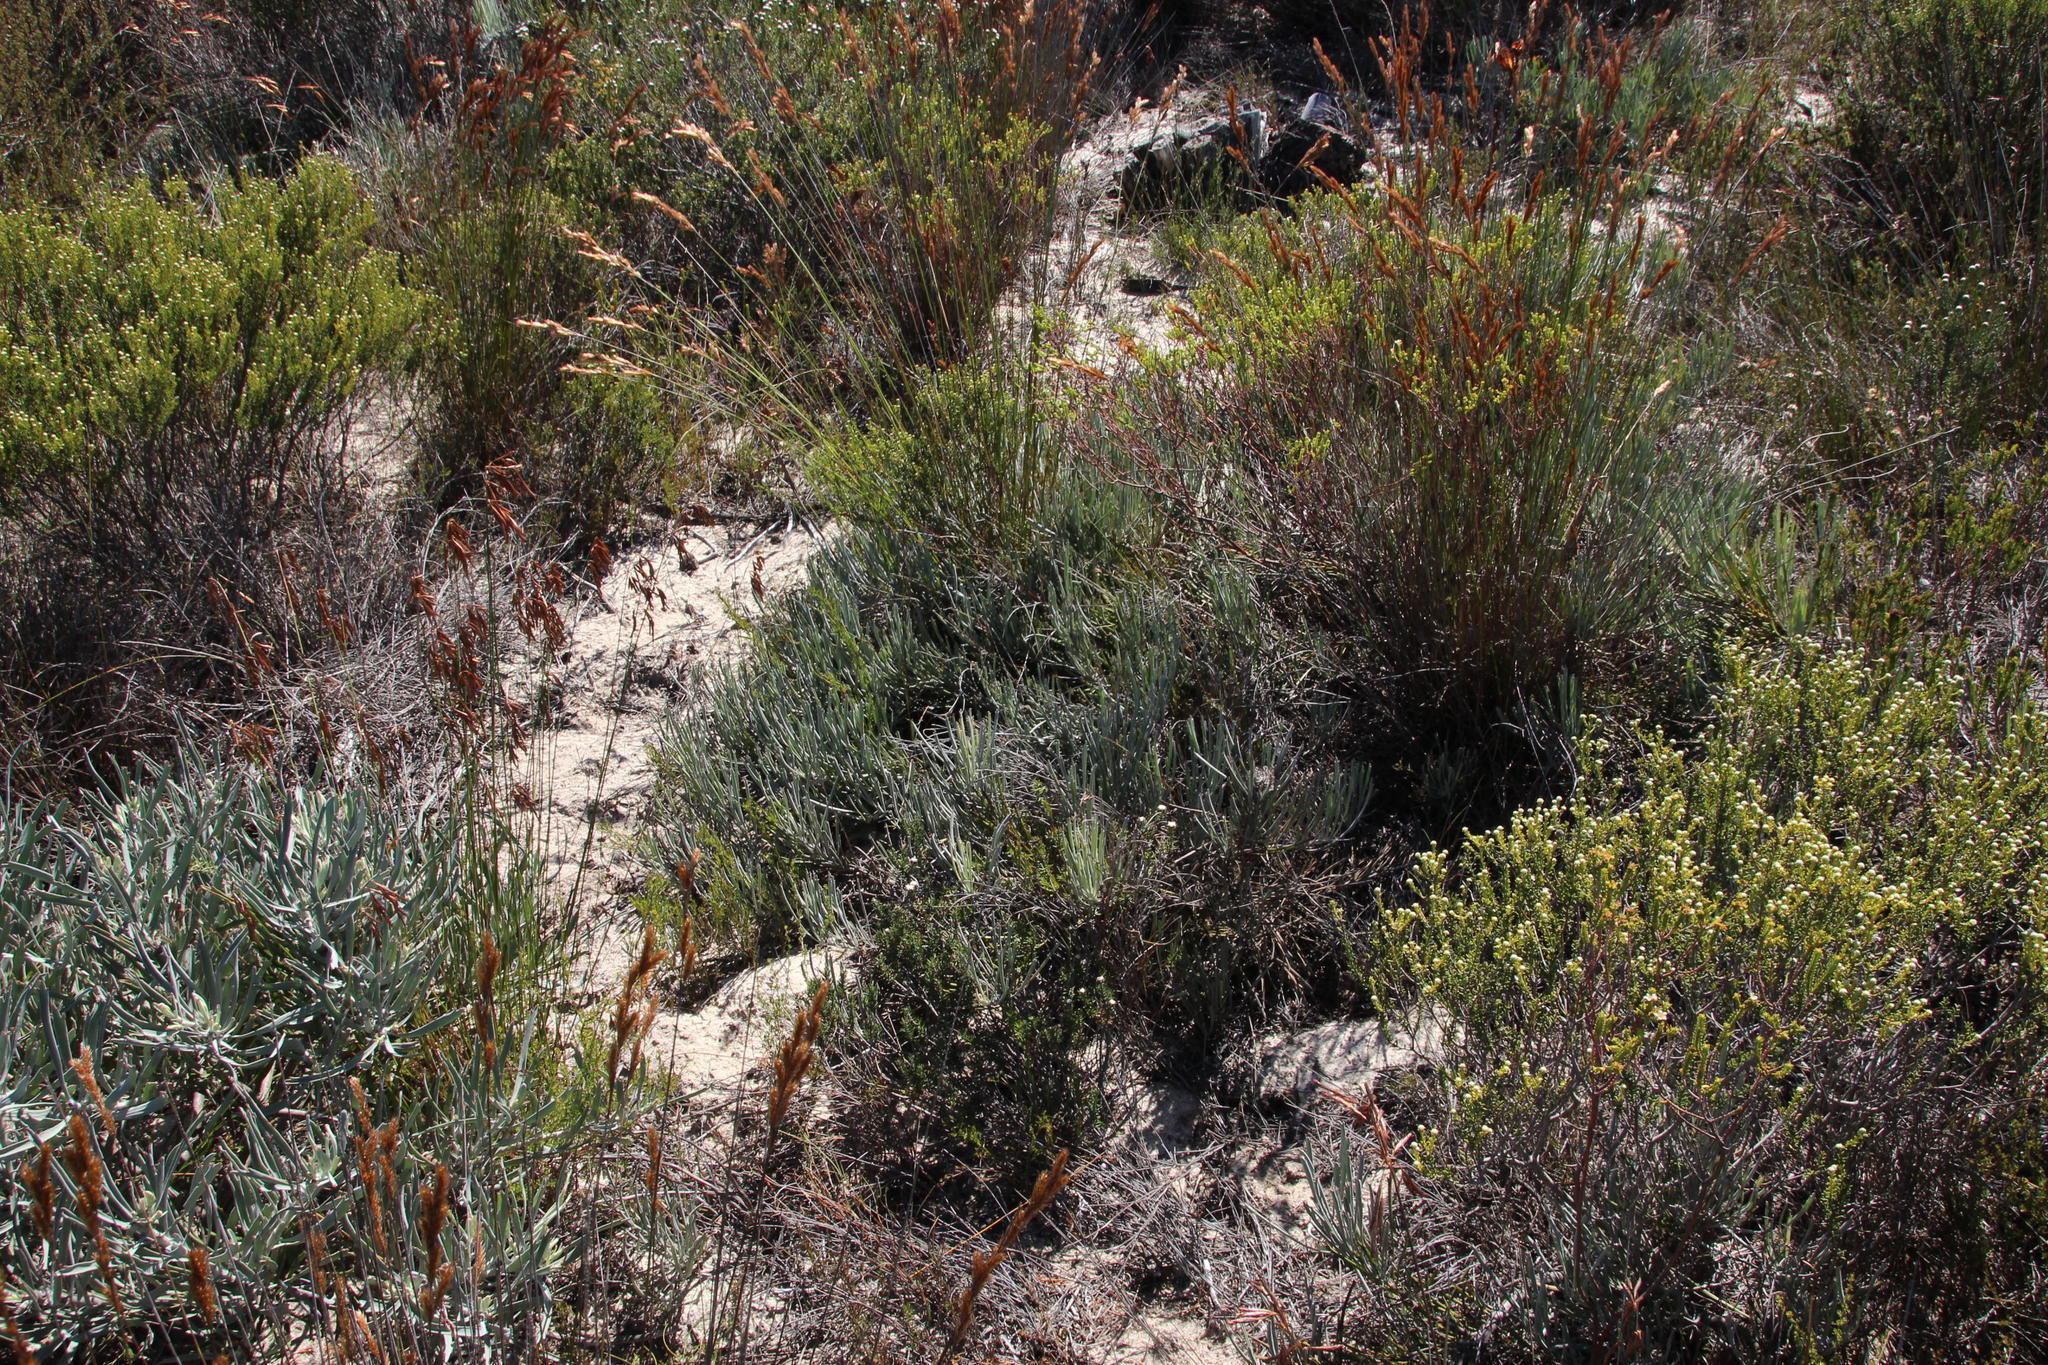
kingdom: Plantae
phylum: Tracheophyta
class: Magnoliopsida
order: Proteales
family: Proteaceae
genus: Leucospermum
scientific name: Leucospermum hypophyllocarpodendron
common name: Snakestem pincushion
